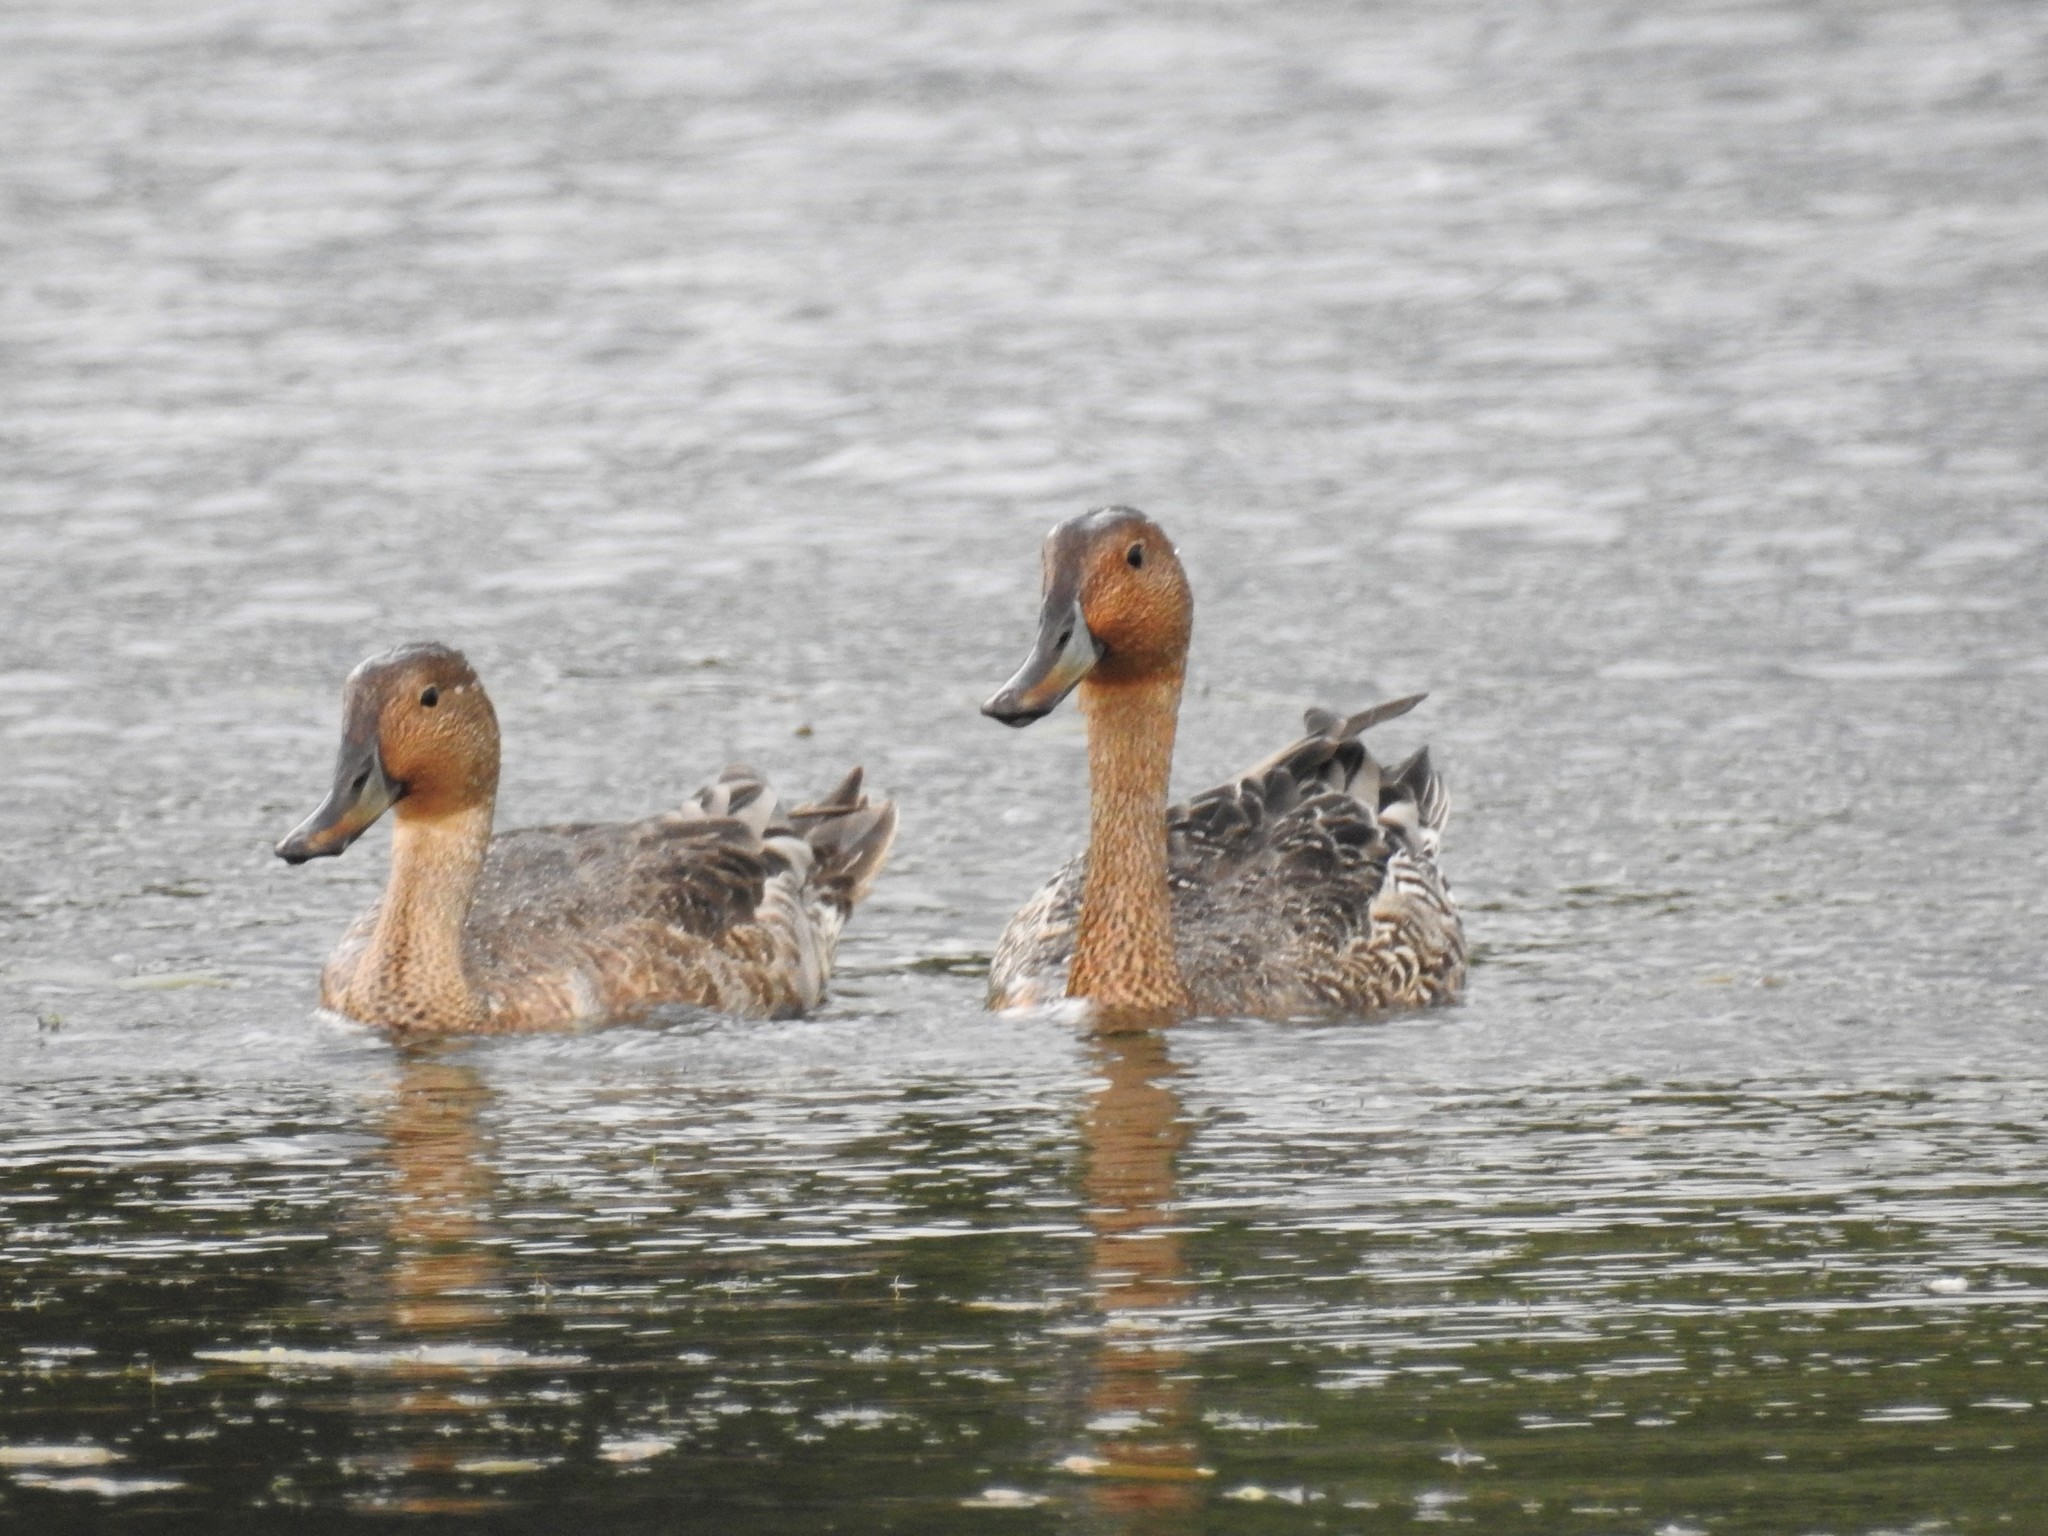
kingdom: Animalia
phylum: Chordata
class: Aves
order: Anseriformes
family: Anatidae
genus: Anas
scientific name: Anas acuta
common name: Northern pintail
